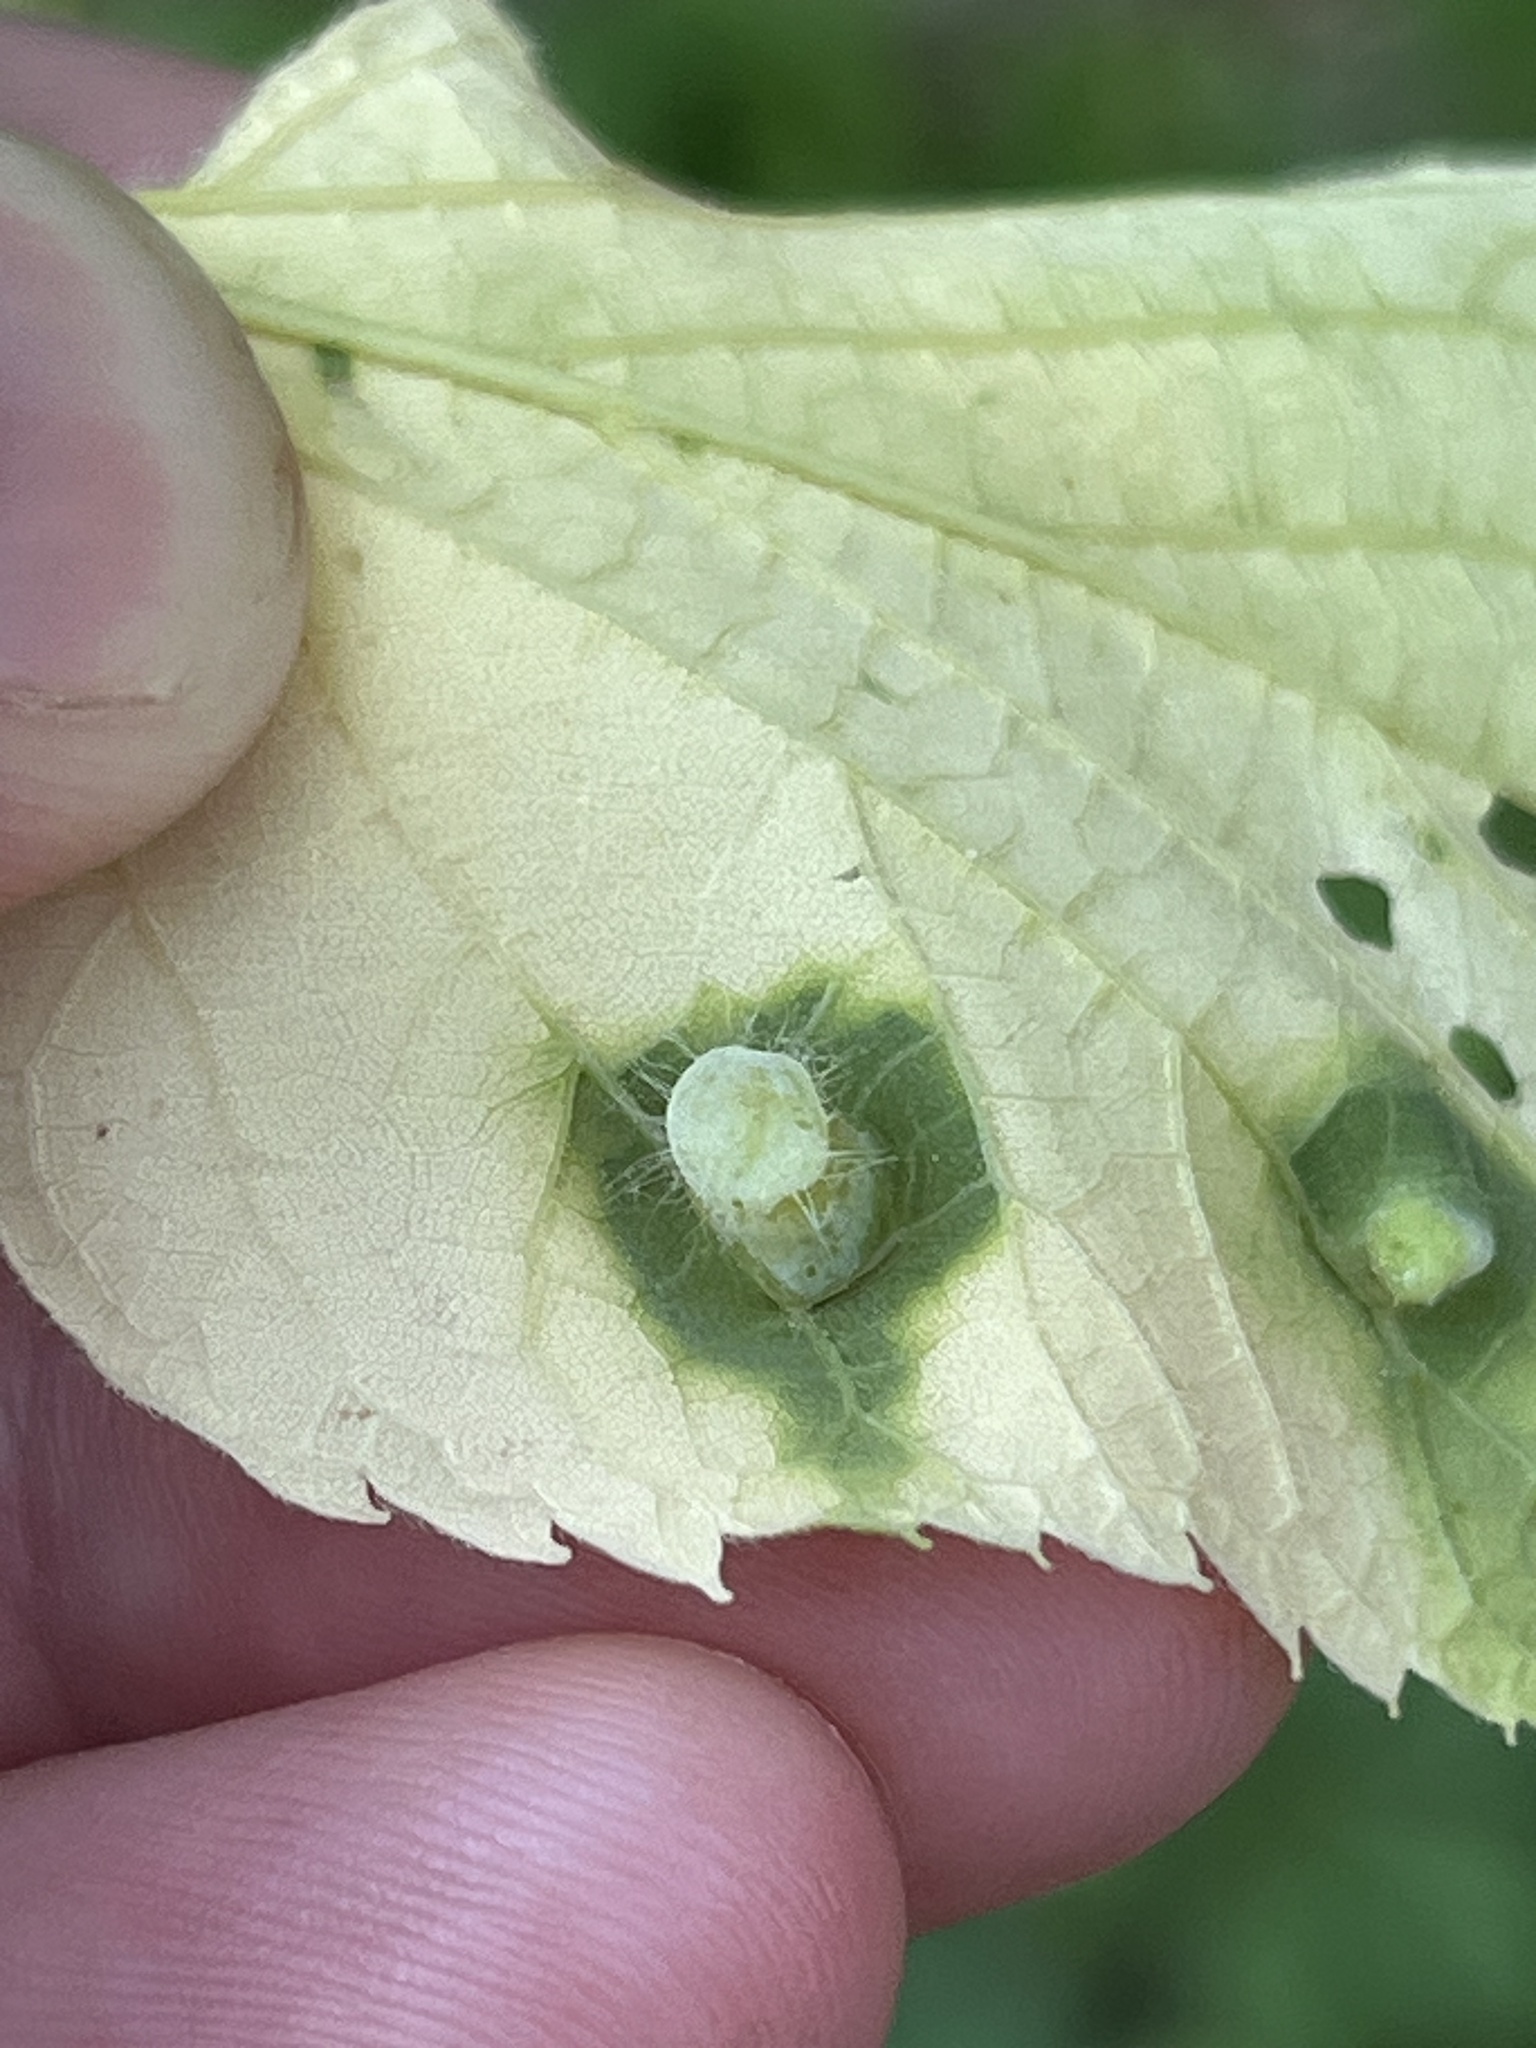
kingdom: Animalia
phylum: Arthropoda
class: Insecta
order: Hemiptera
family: Aphalaridae
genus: Pachypsylla
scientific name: Pachypsylla celtidismamma
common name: Hackberry nipplegall psyllid
